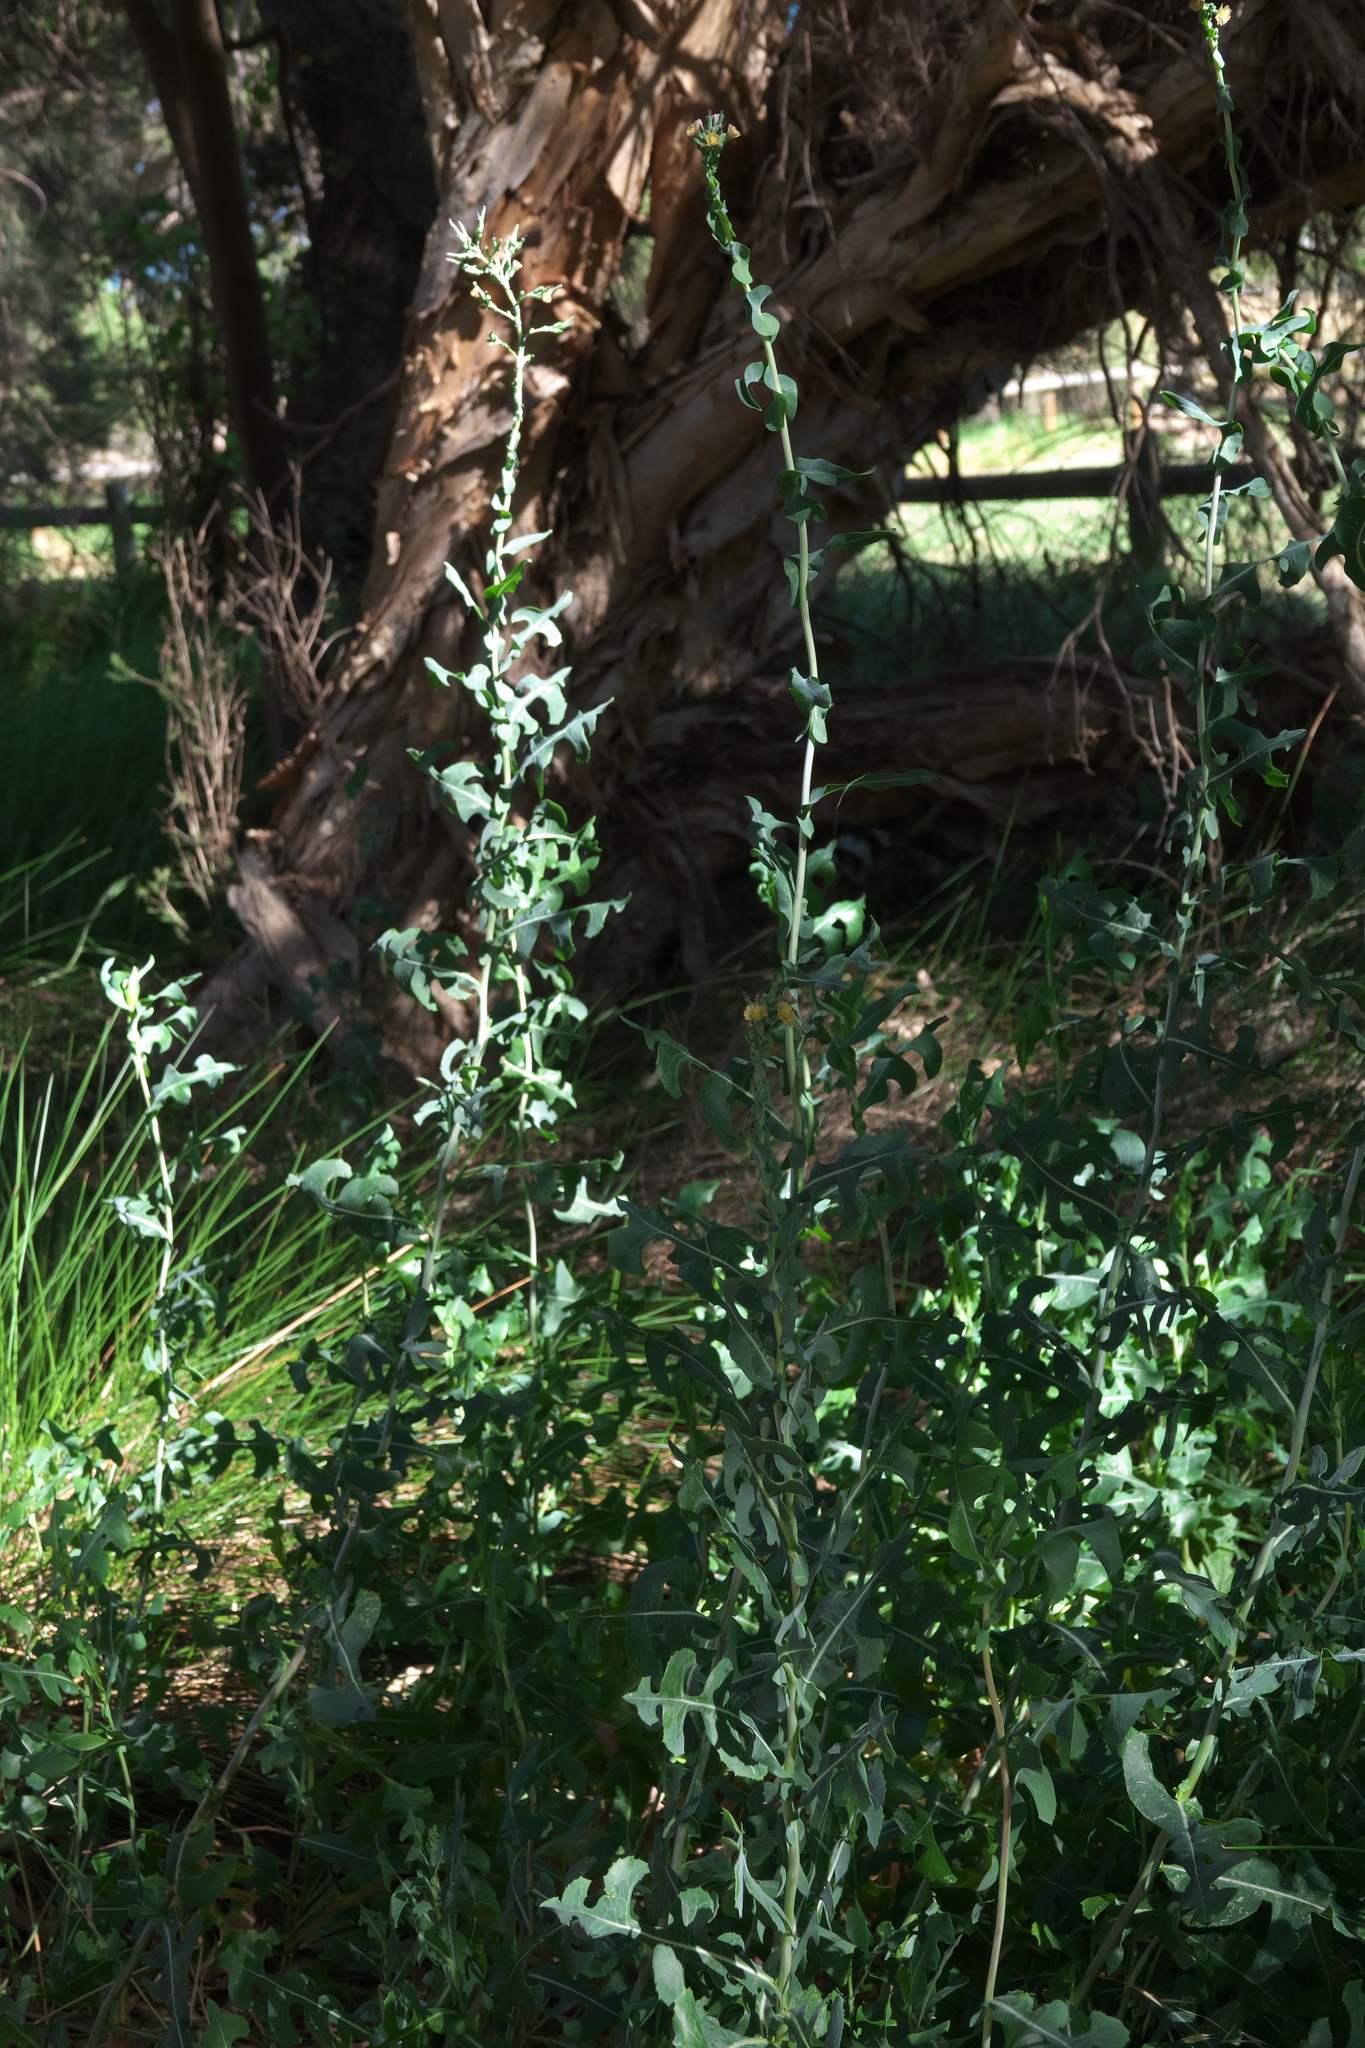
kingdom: Plantae
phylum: Tracheophyta
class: Magnoliopsida
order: Asterales
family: Asteraceae
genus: Lactuca
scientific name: Lactuca serriola
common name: Prickly lettuce
